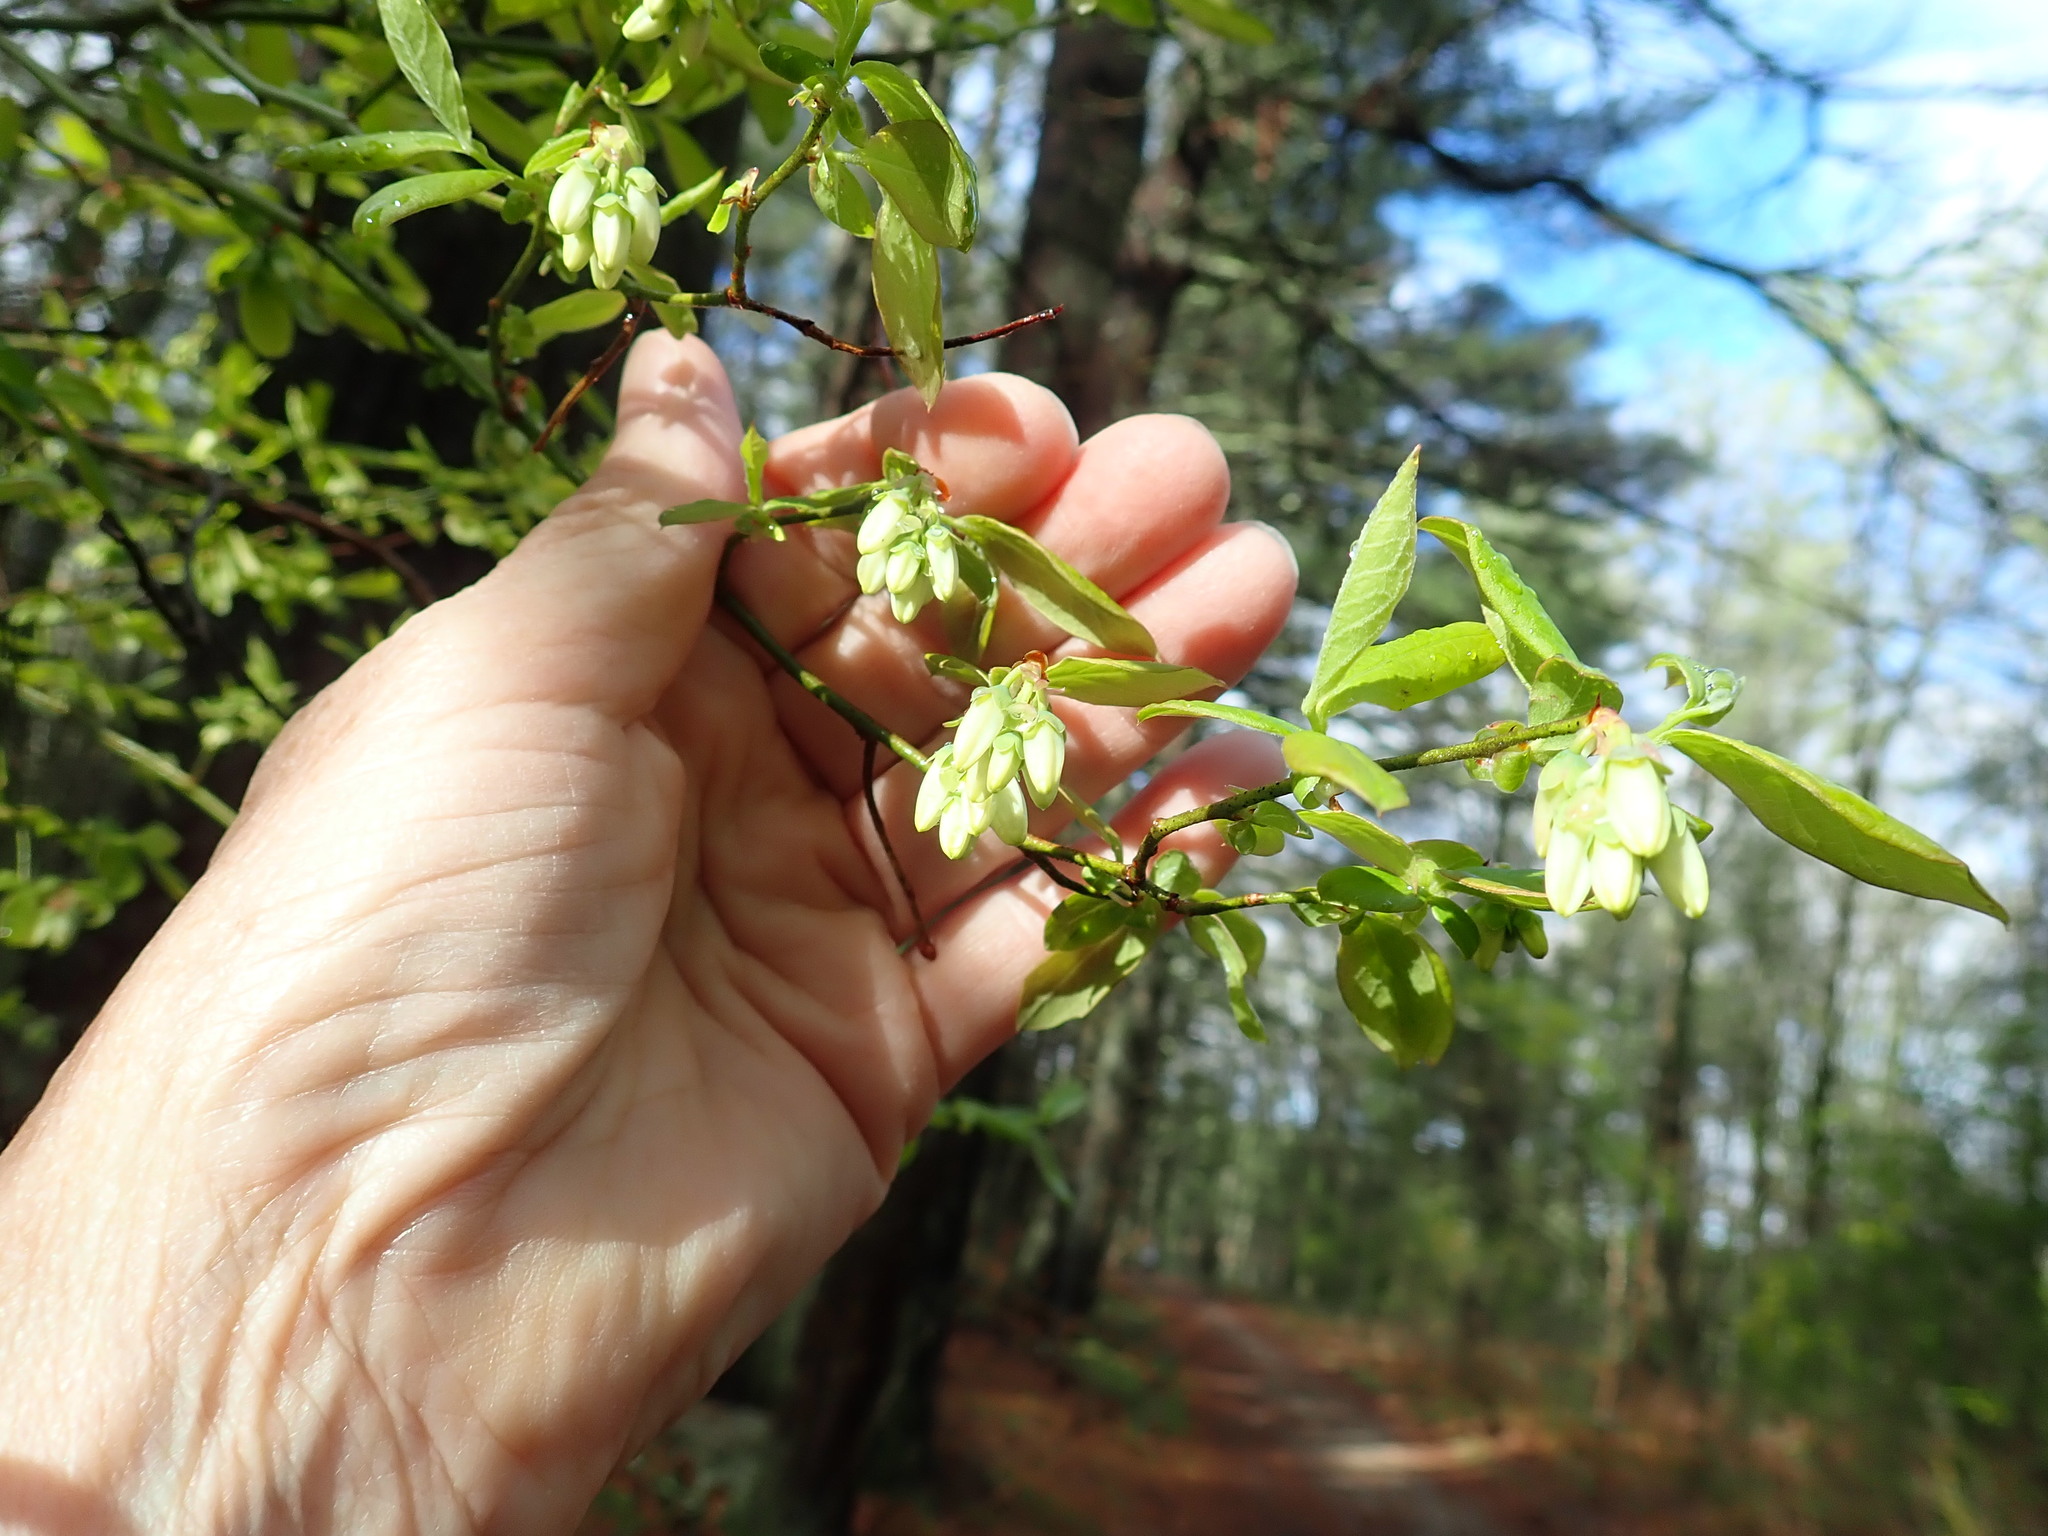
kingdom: Plantae
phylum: Tracheophyta
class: Magnoliopsida
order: Ericales
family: Ericaceae
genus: Vaccinium
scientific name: Vaccinium corymbosum
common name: Blueberry
